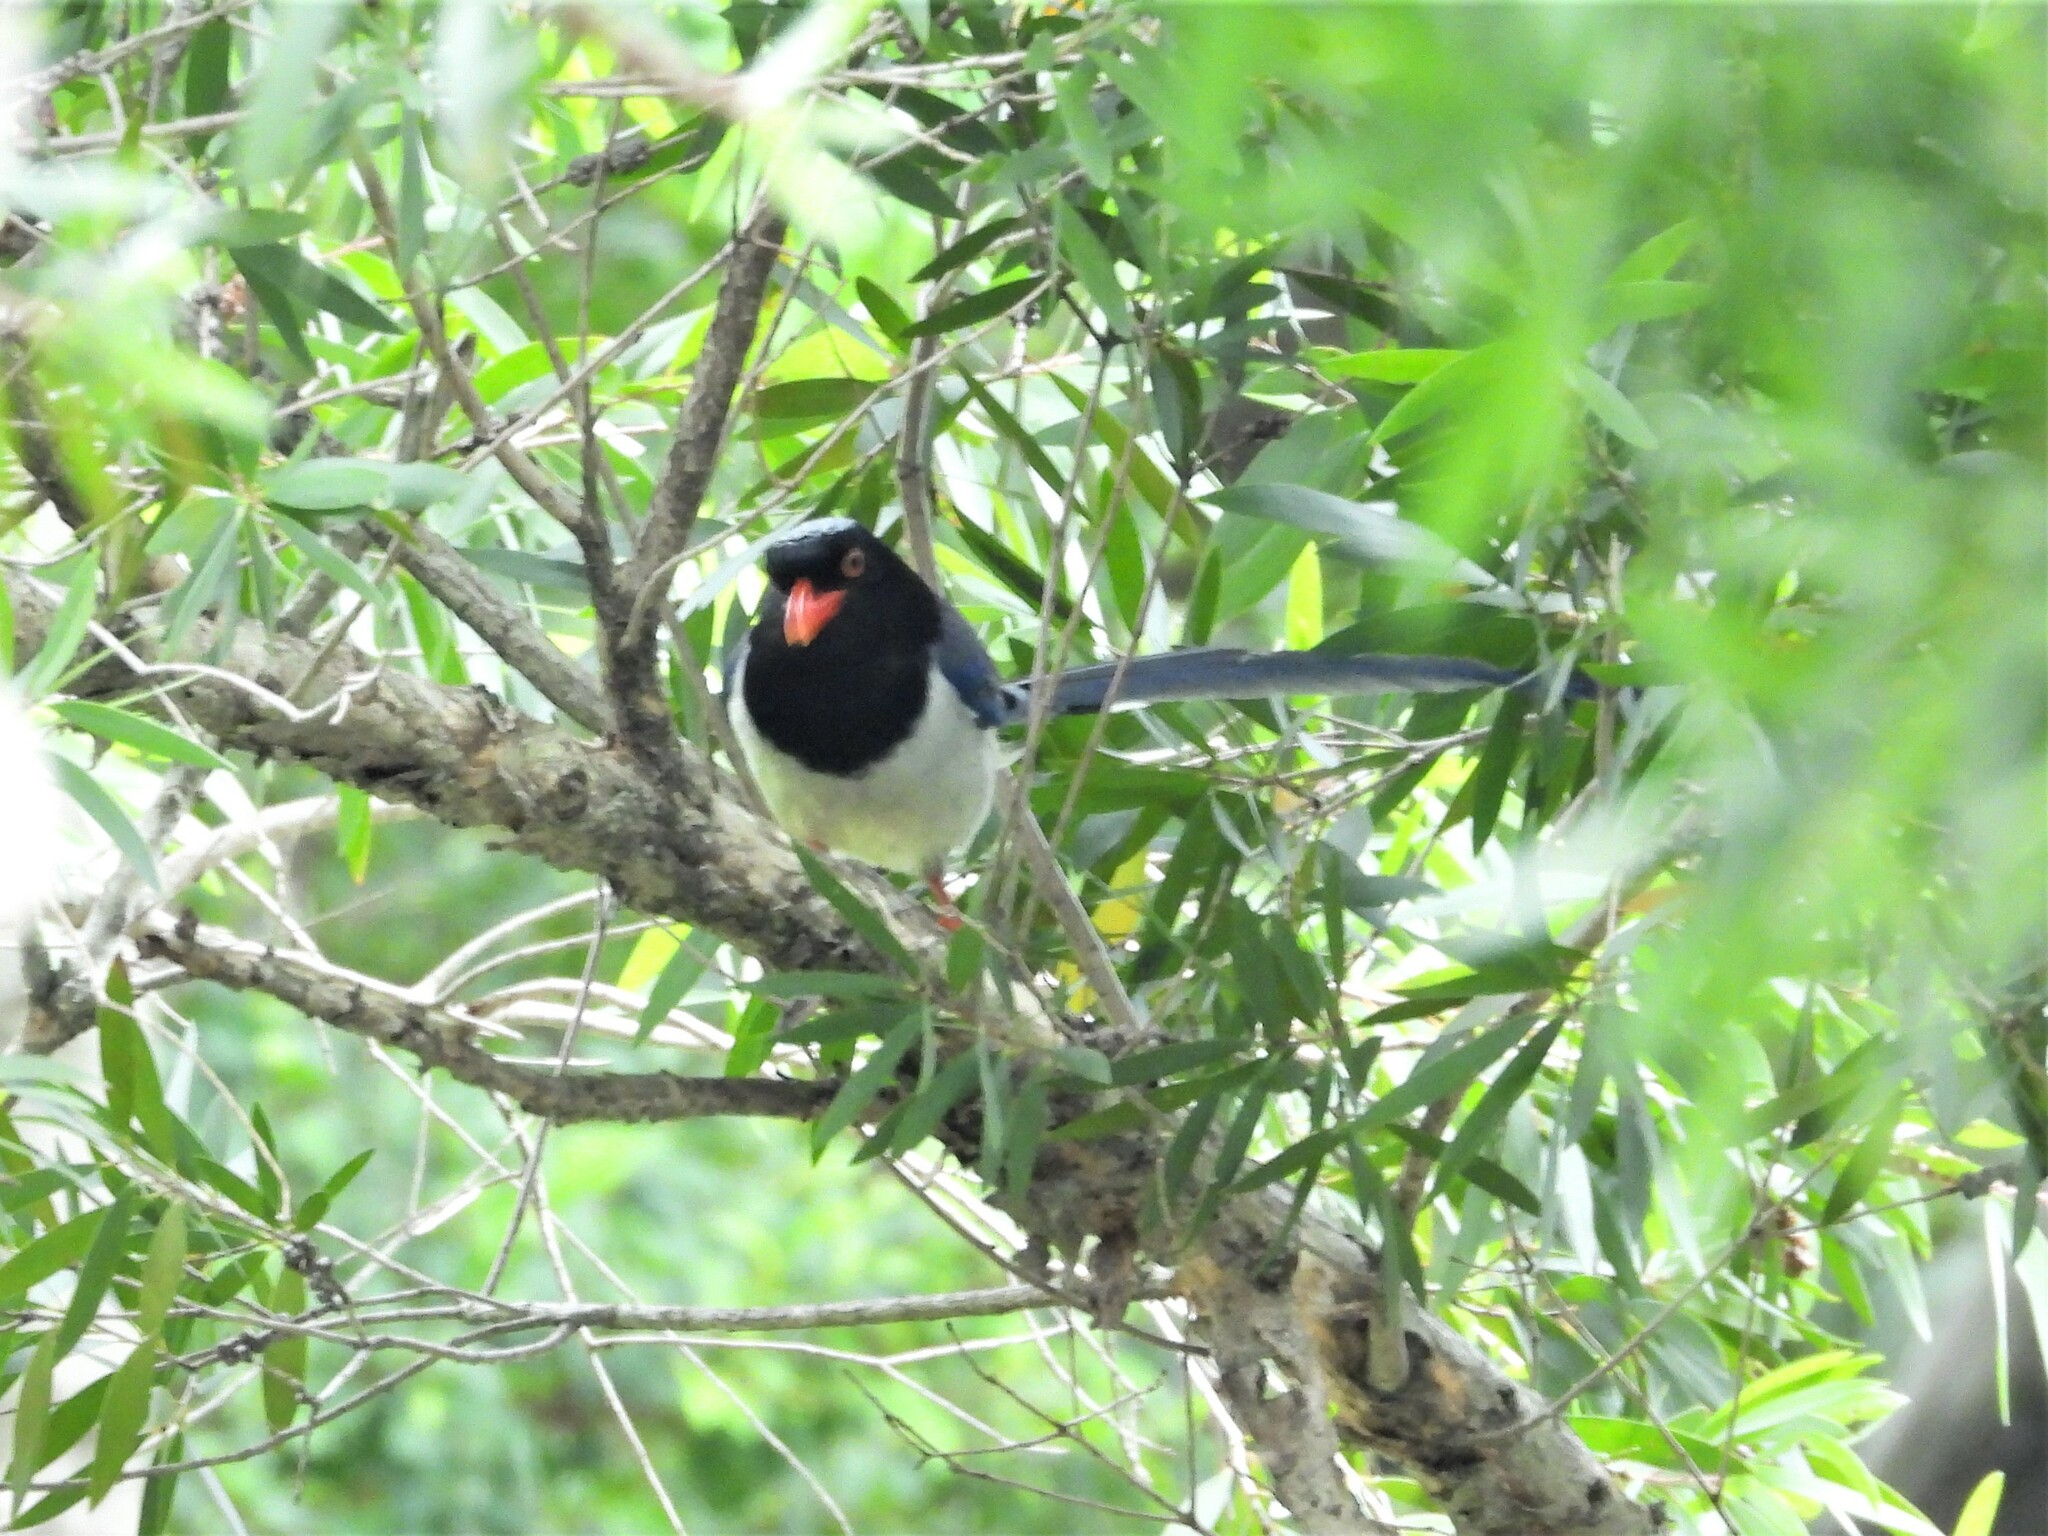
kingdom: Animalia
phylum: Chordata
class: Aves
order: Passeriformes
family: Corvidae
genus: Urocissa
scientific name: Urocissa erythroryncha
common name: Red-billed blue magpie
